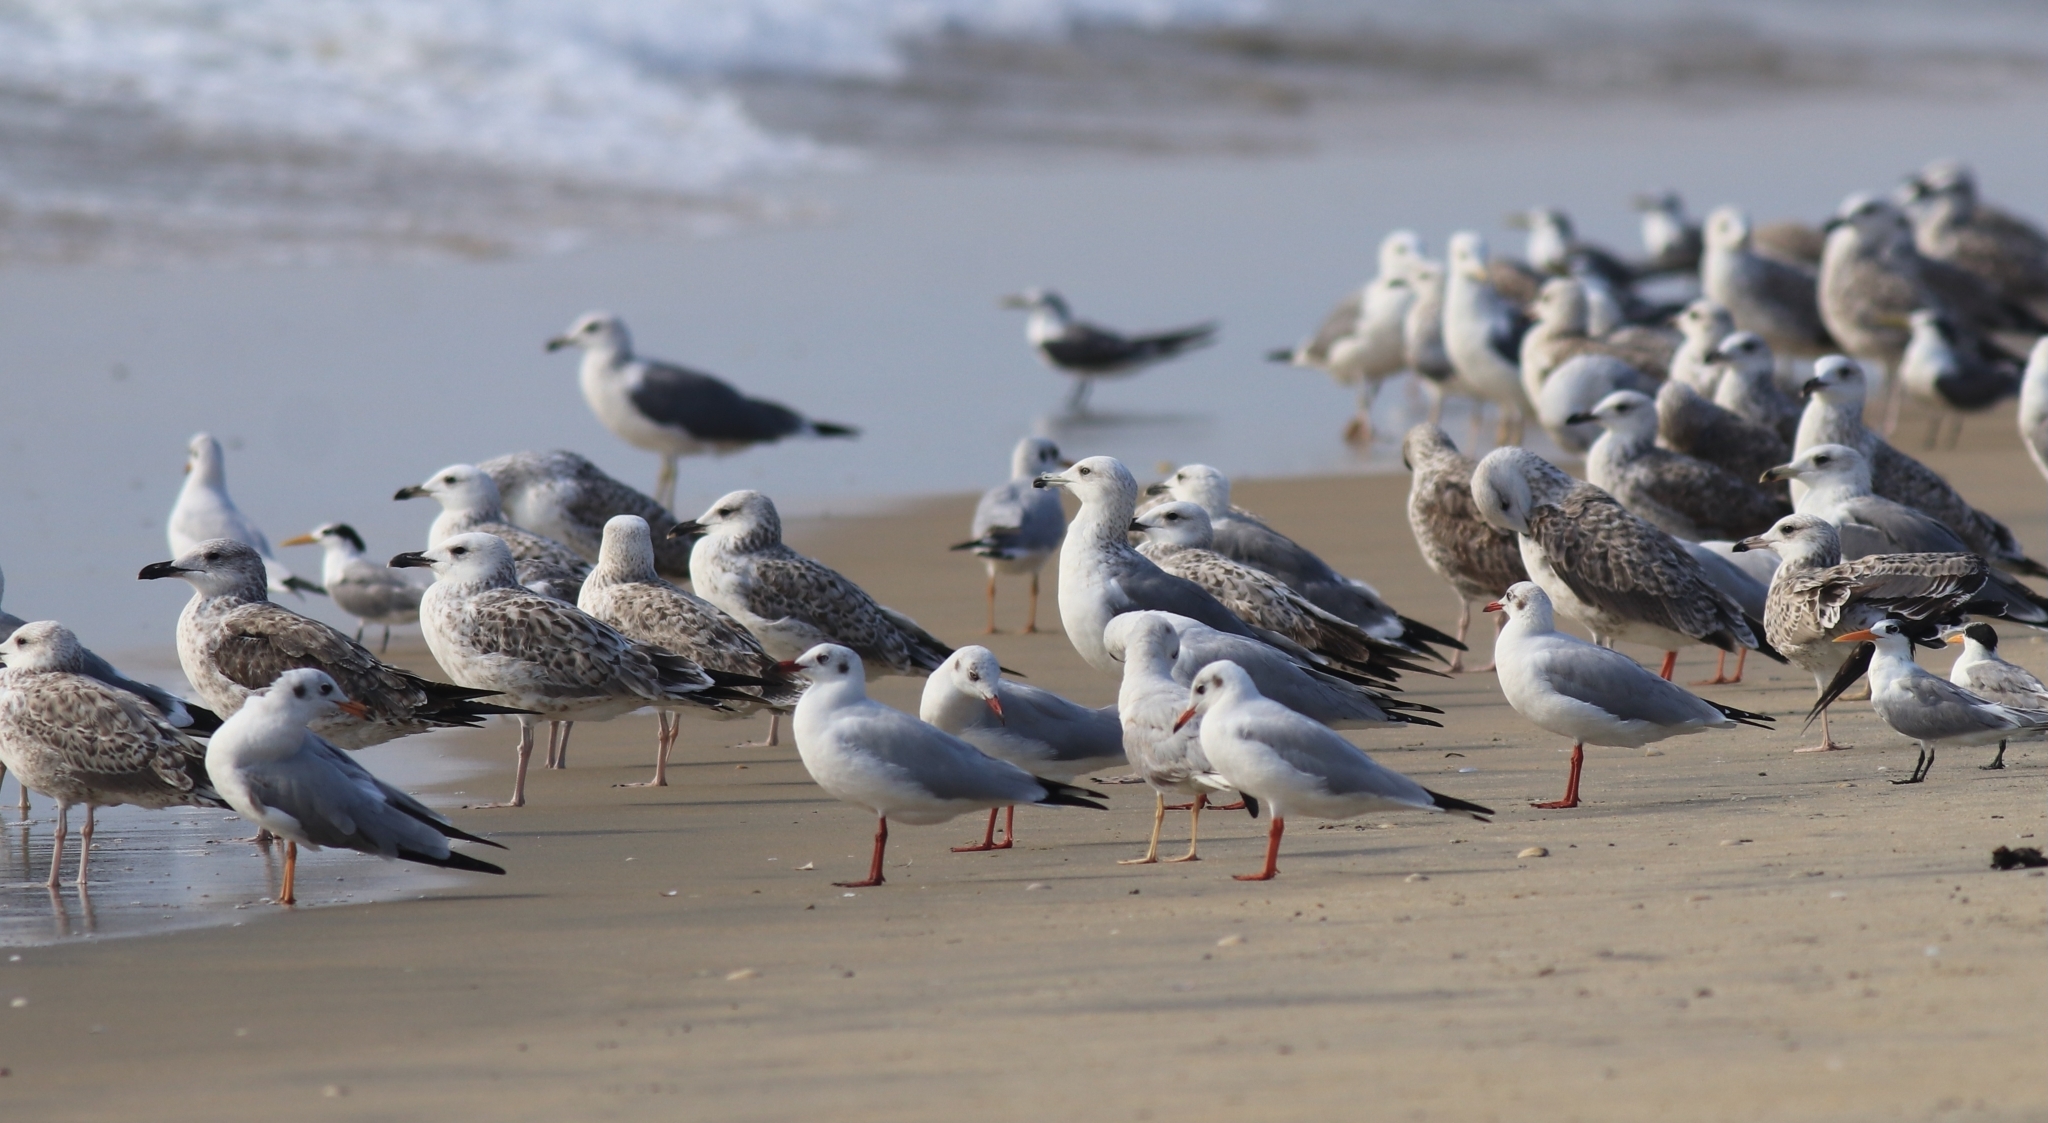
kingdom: Animalia
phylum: Chordata
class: Aves
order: Charadriiformes
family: Laridae
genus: Chroicocephalus
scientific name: Chroicocephalus brunnicephalus
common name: Brown-headed gull
